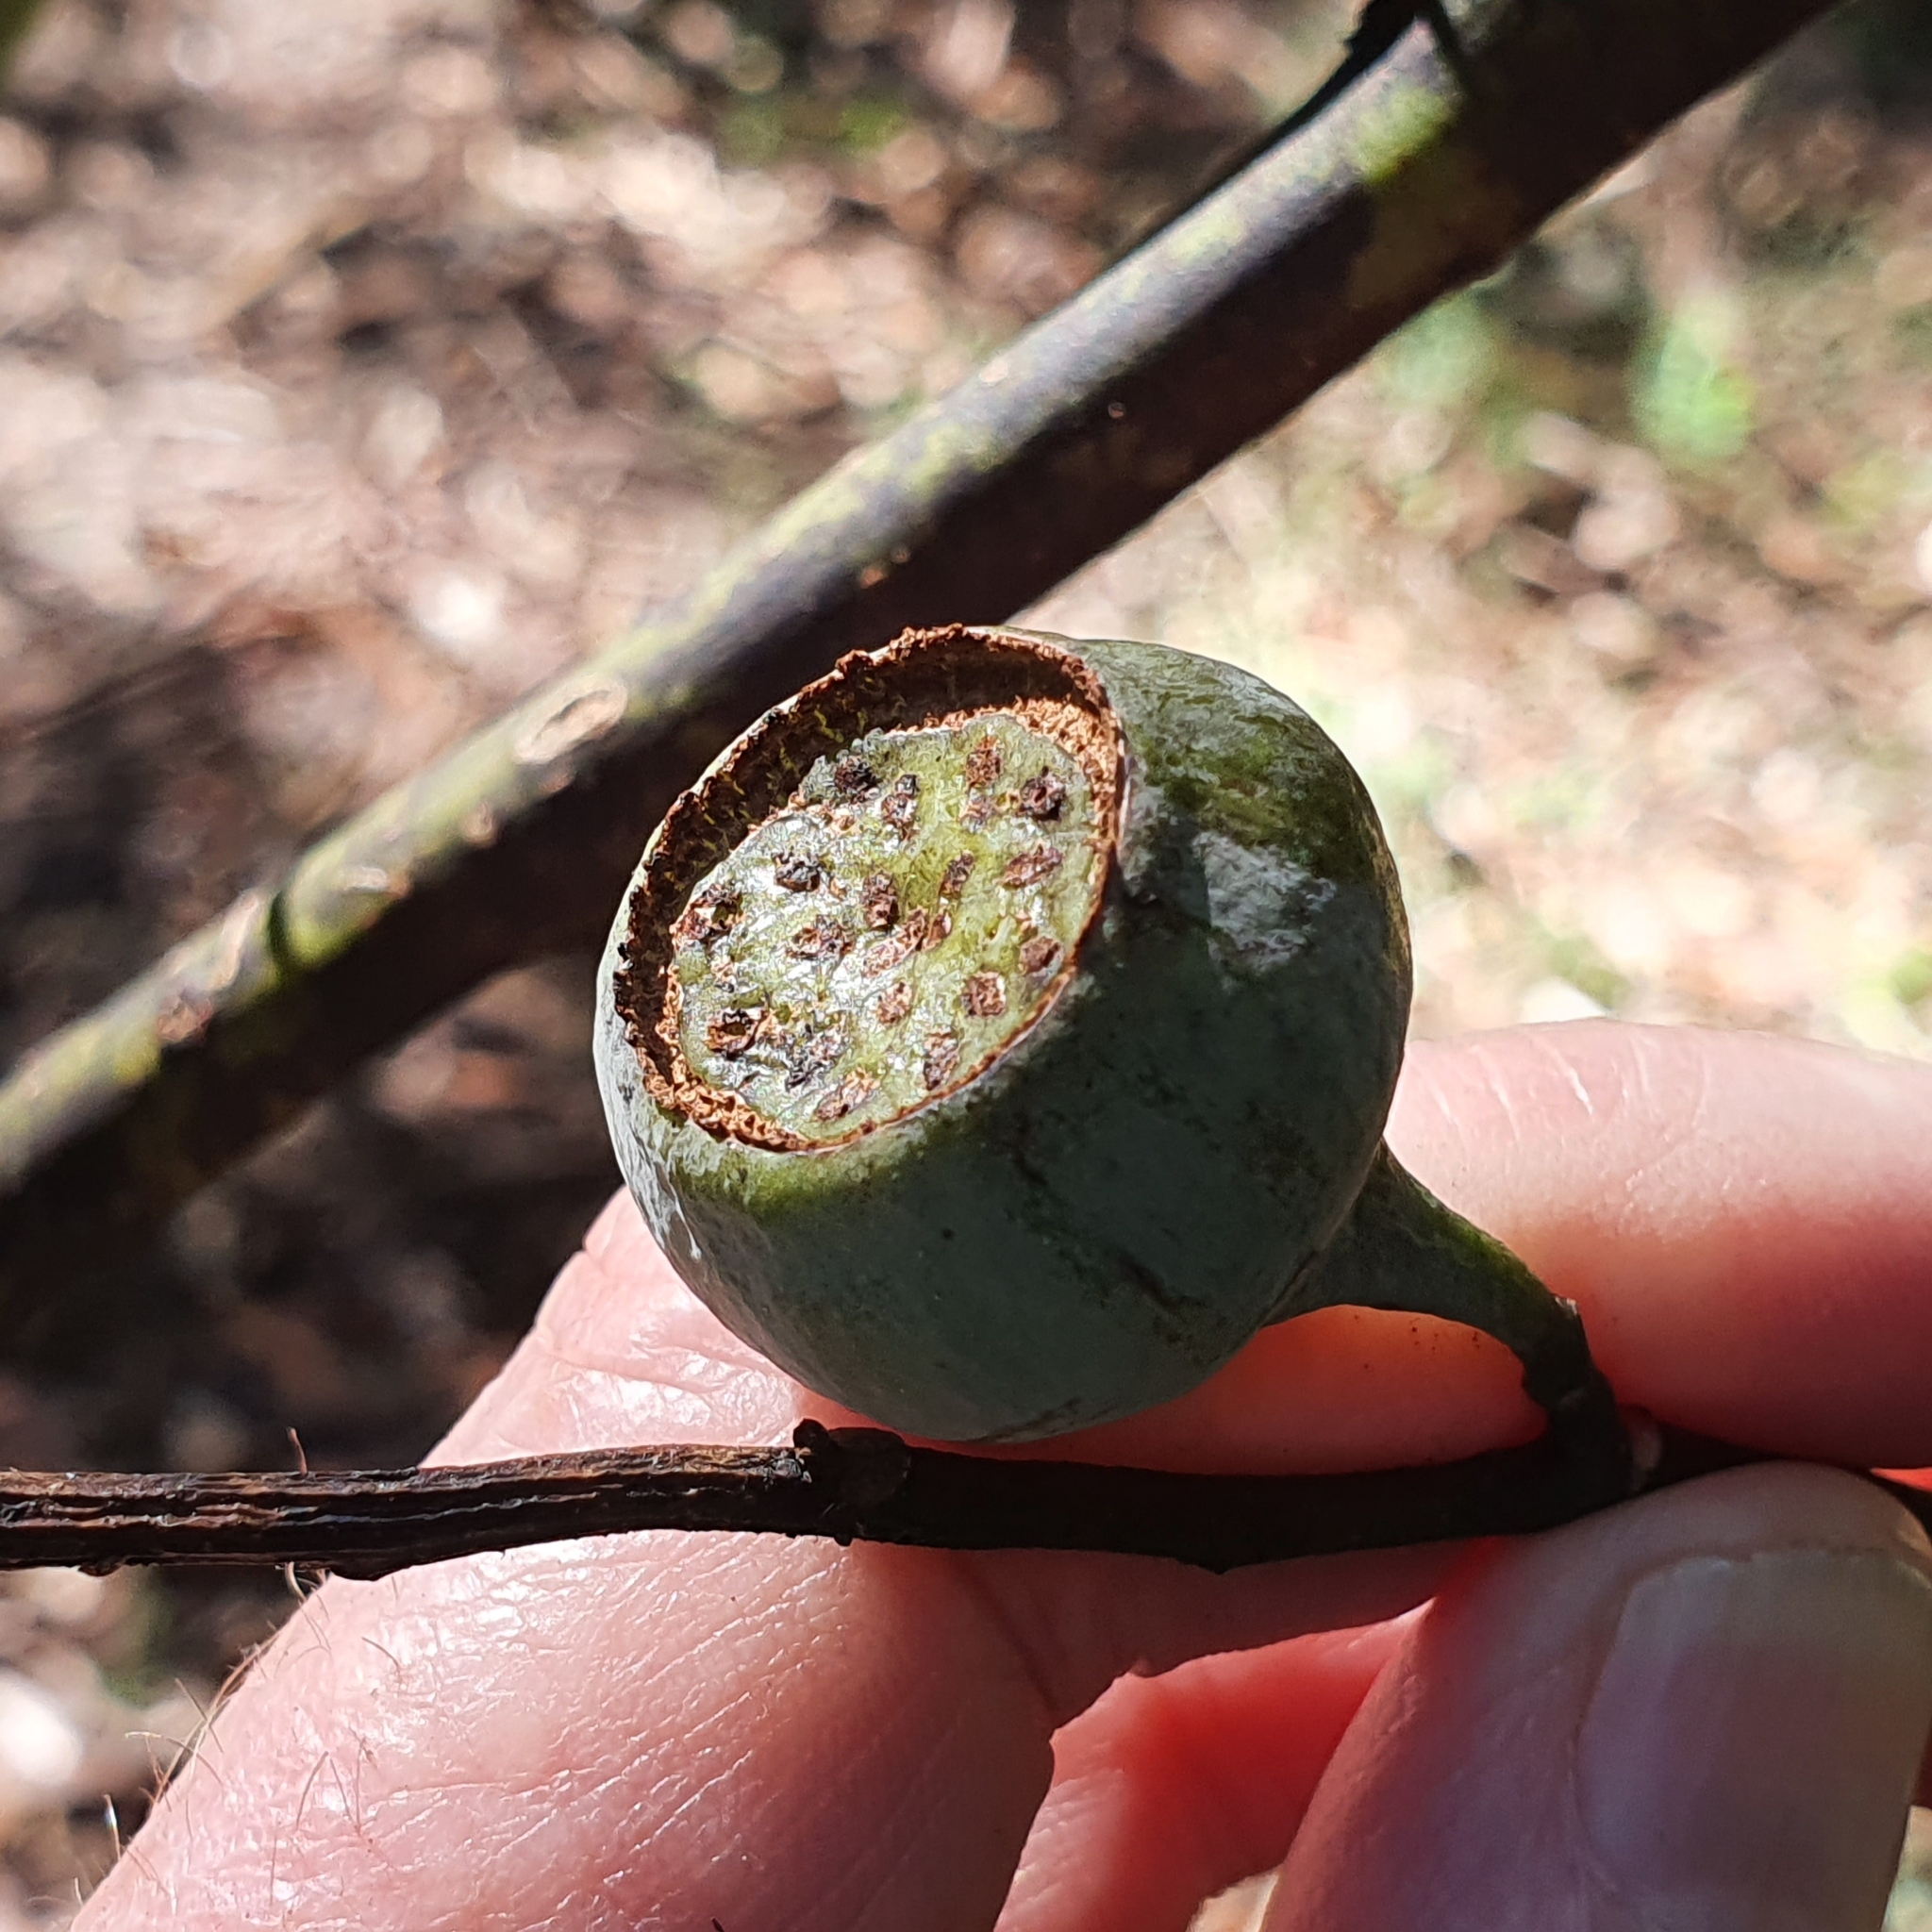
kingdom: Plantae
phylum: Tracheophyta
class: Magnoliopsida
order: Magnoliales
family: Eupomatiaceae
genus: Eupomatia
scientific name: Eupomatia laurina
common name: Bolwarra
